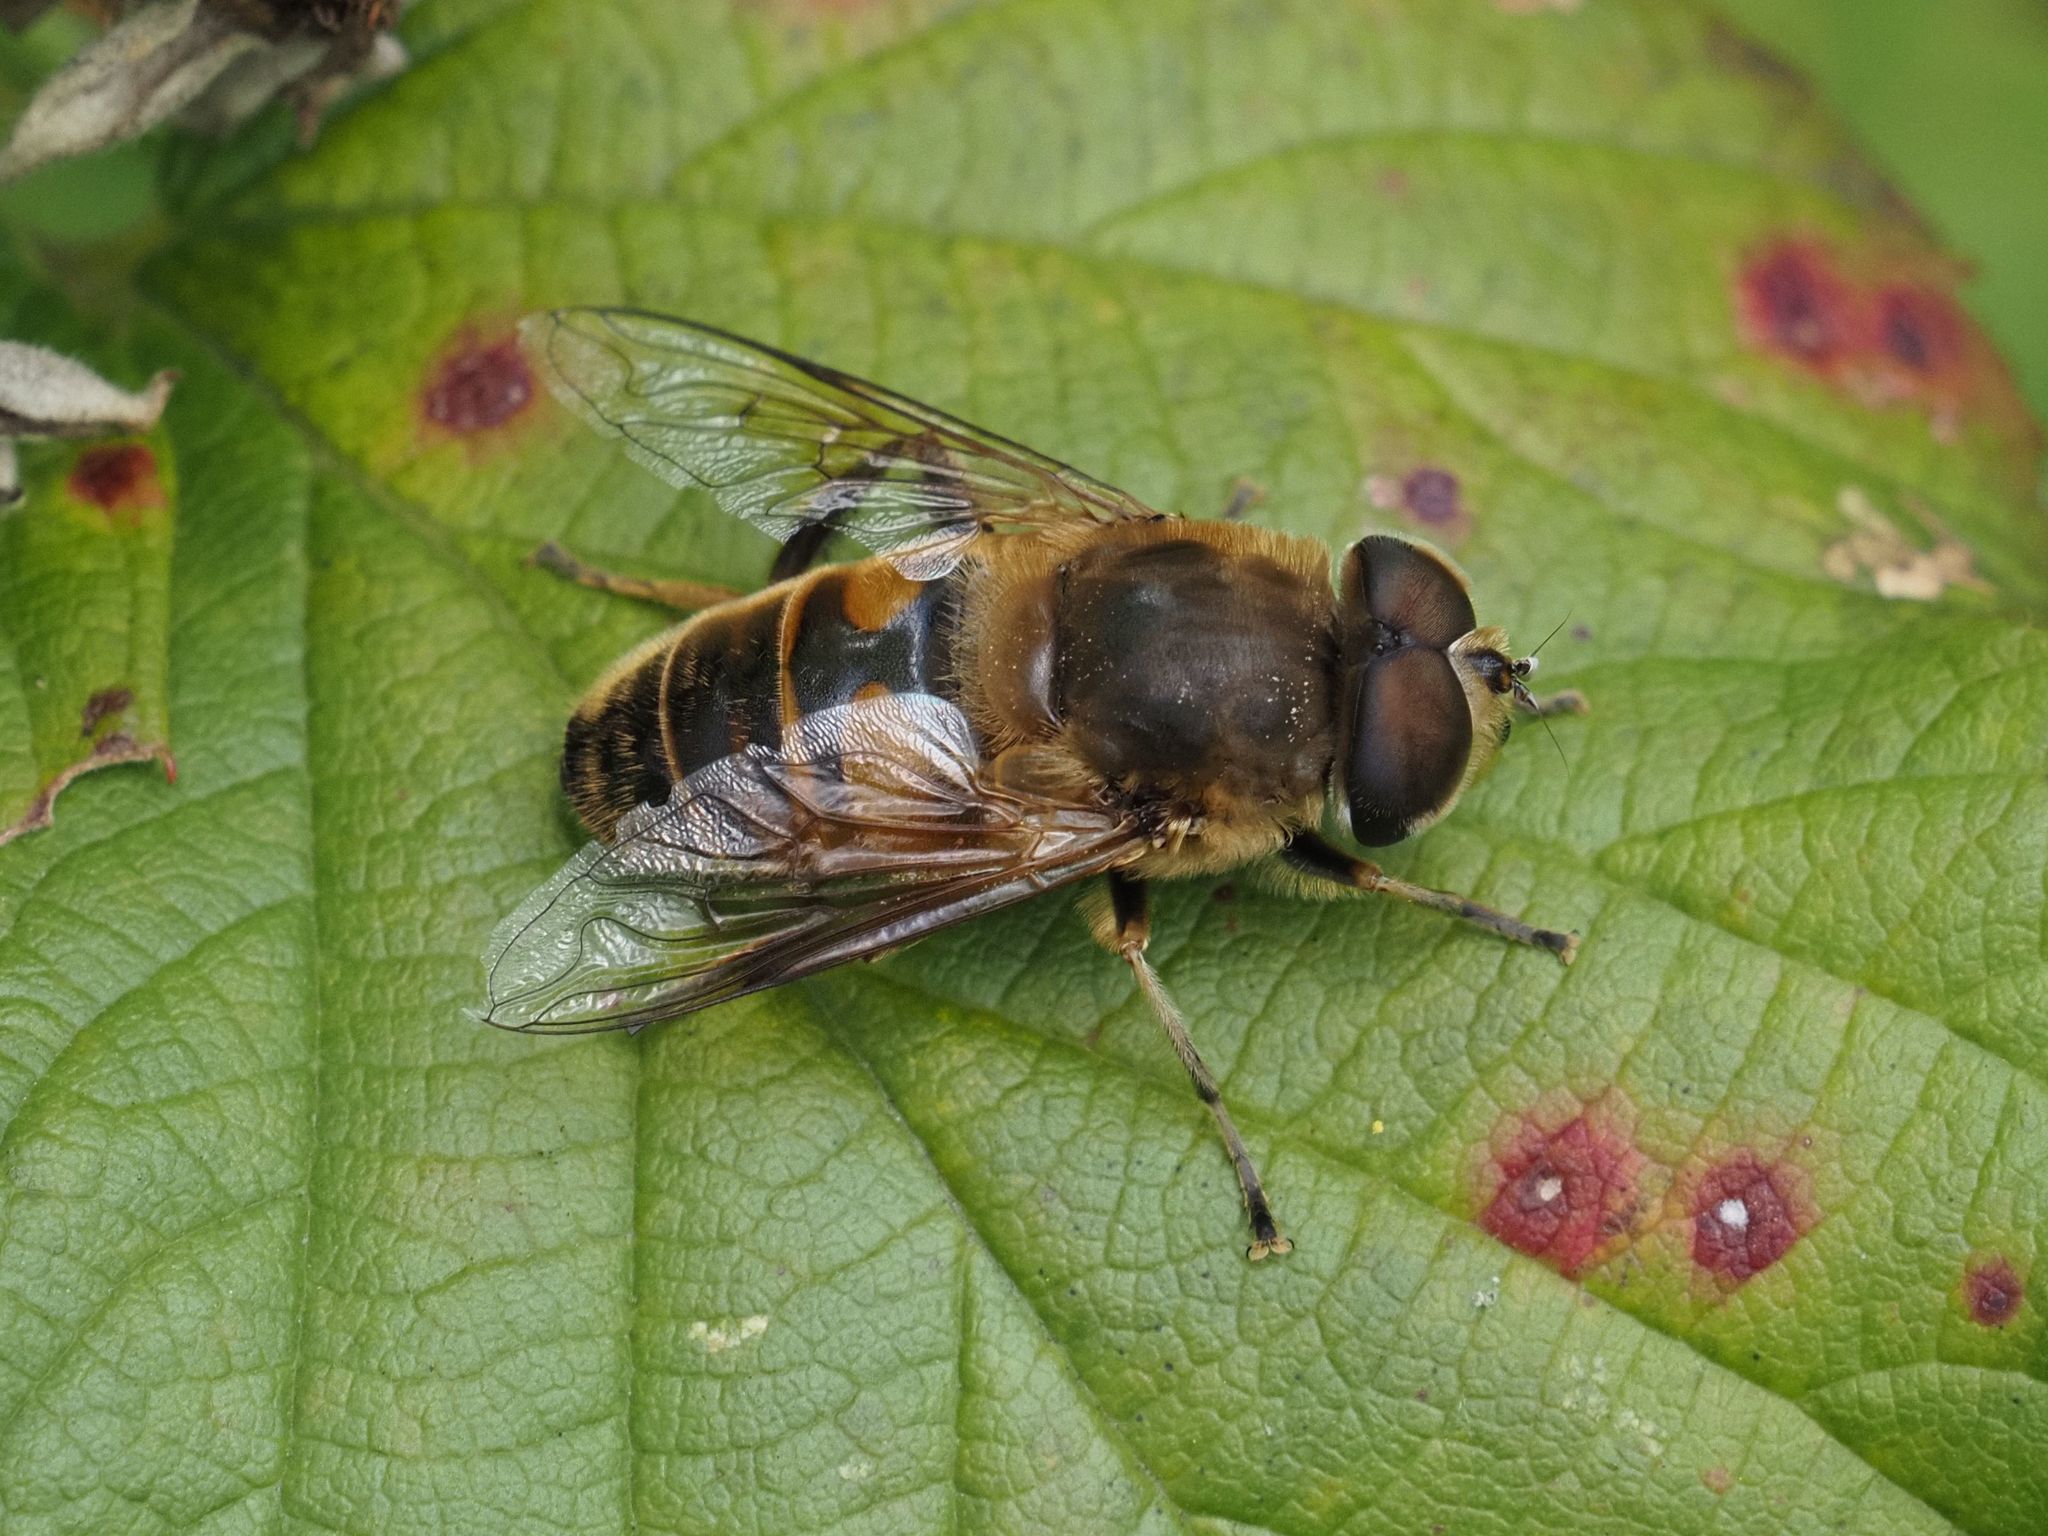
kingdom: Animalia
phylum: Arthropoda
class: Insecta
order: Diptera
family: Syrphidae
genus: Eristalis
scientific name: Eristalis tenax
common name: Drone fly
